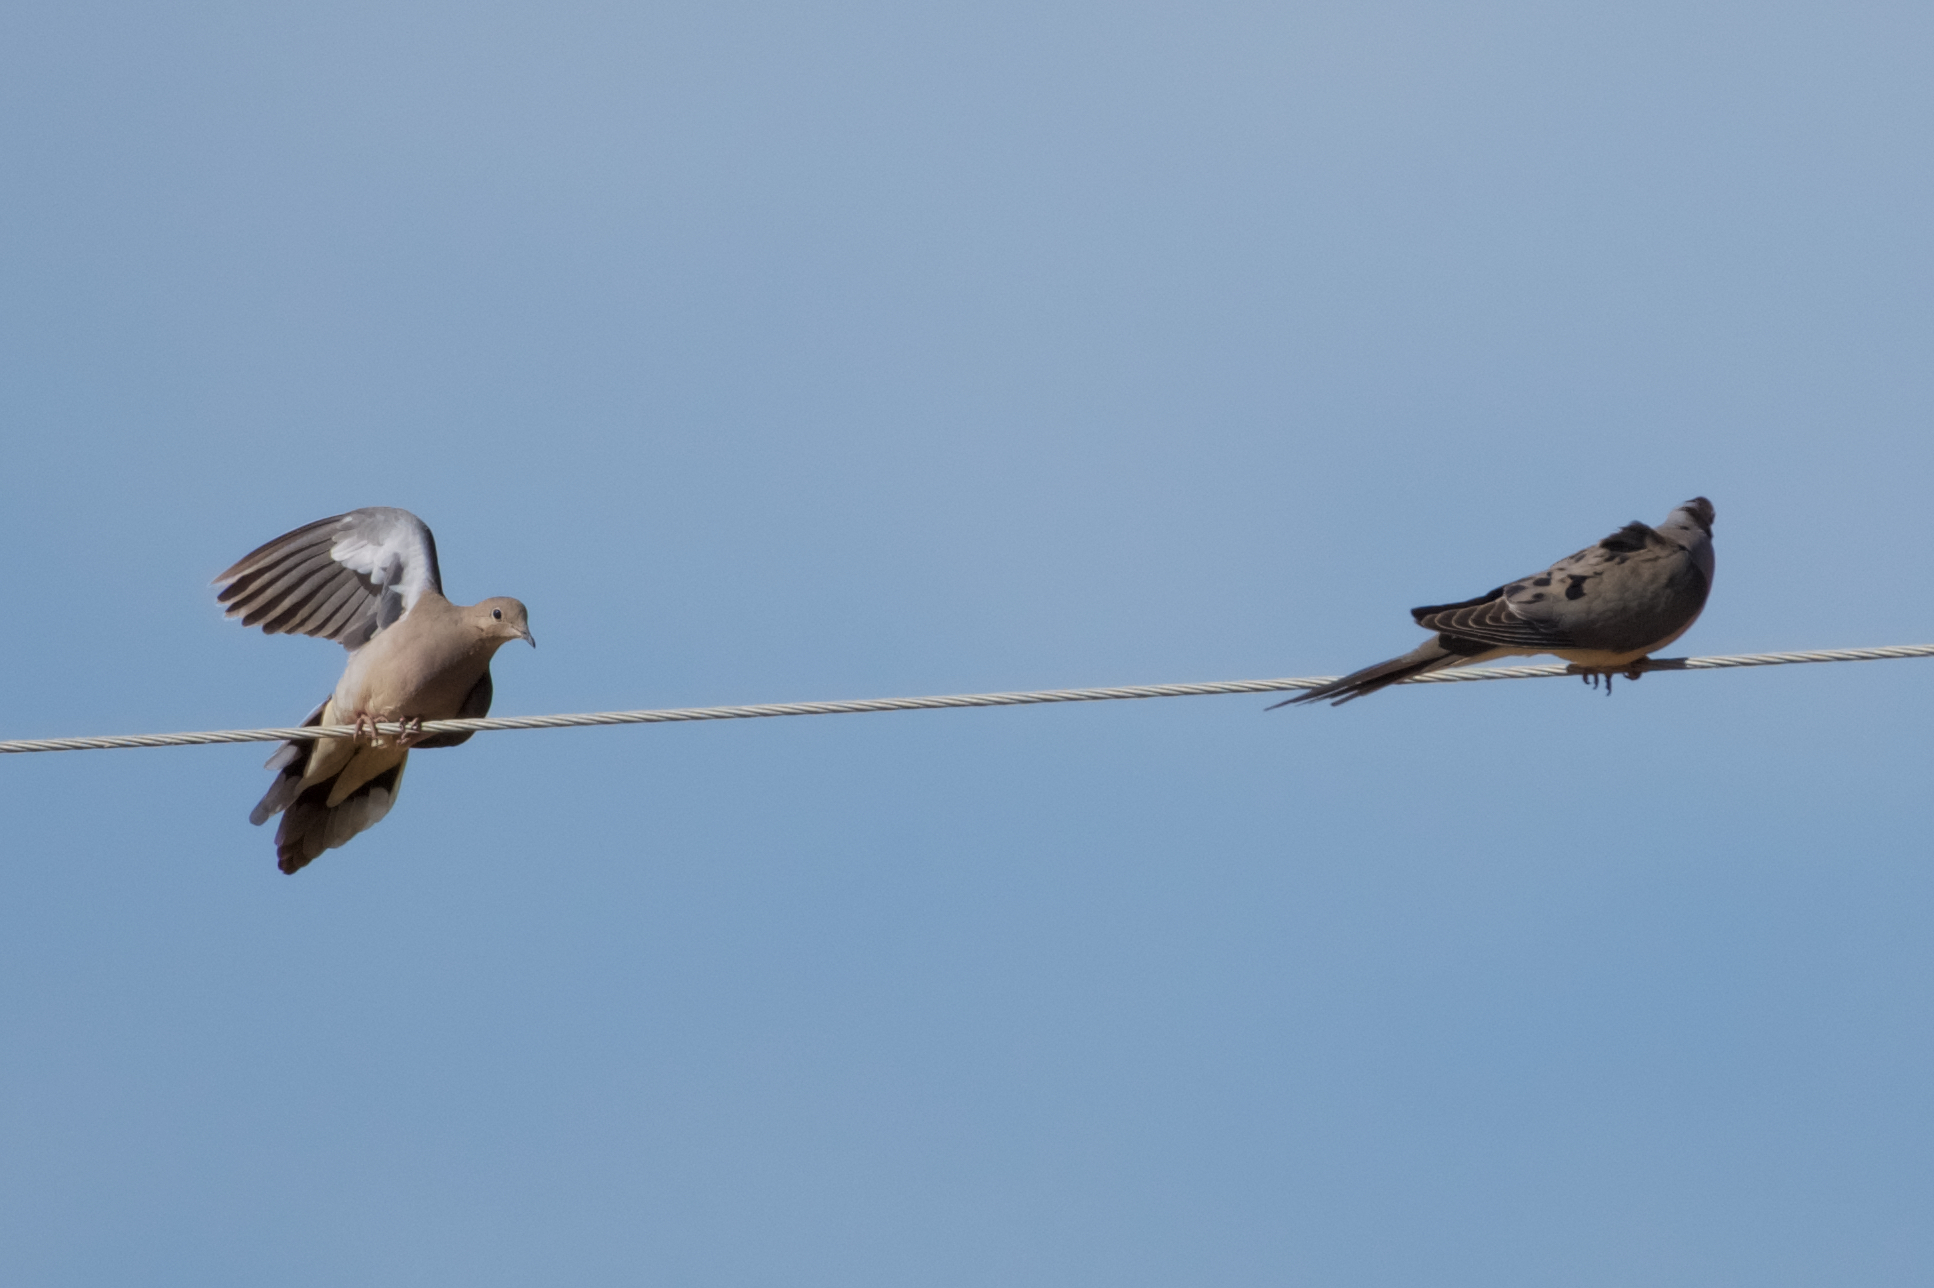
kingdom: Animalia
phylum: Chordata
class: Aves
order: Columbiformes
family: Columbidae
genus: Zenaida
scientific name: Zenaida macroura
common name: Mourning dove
